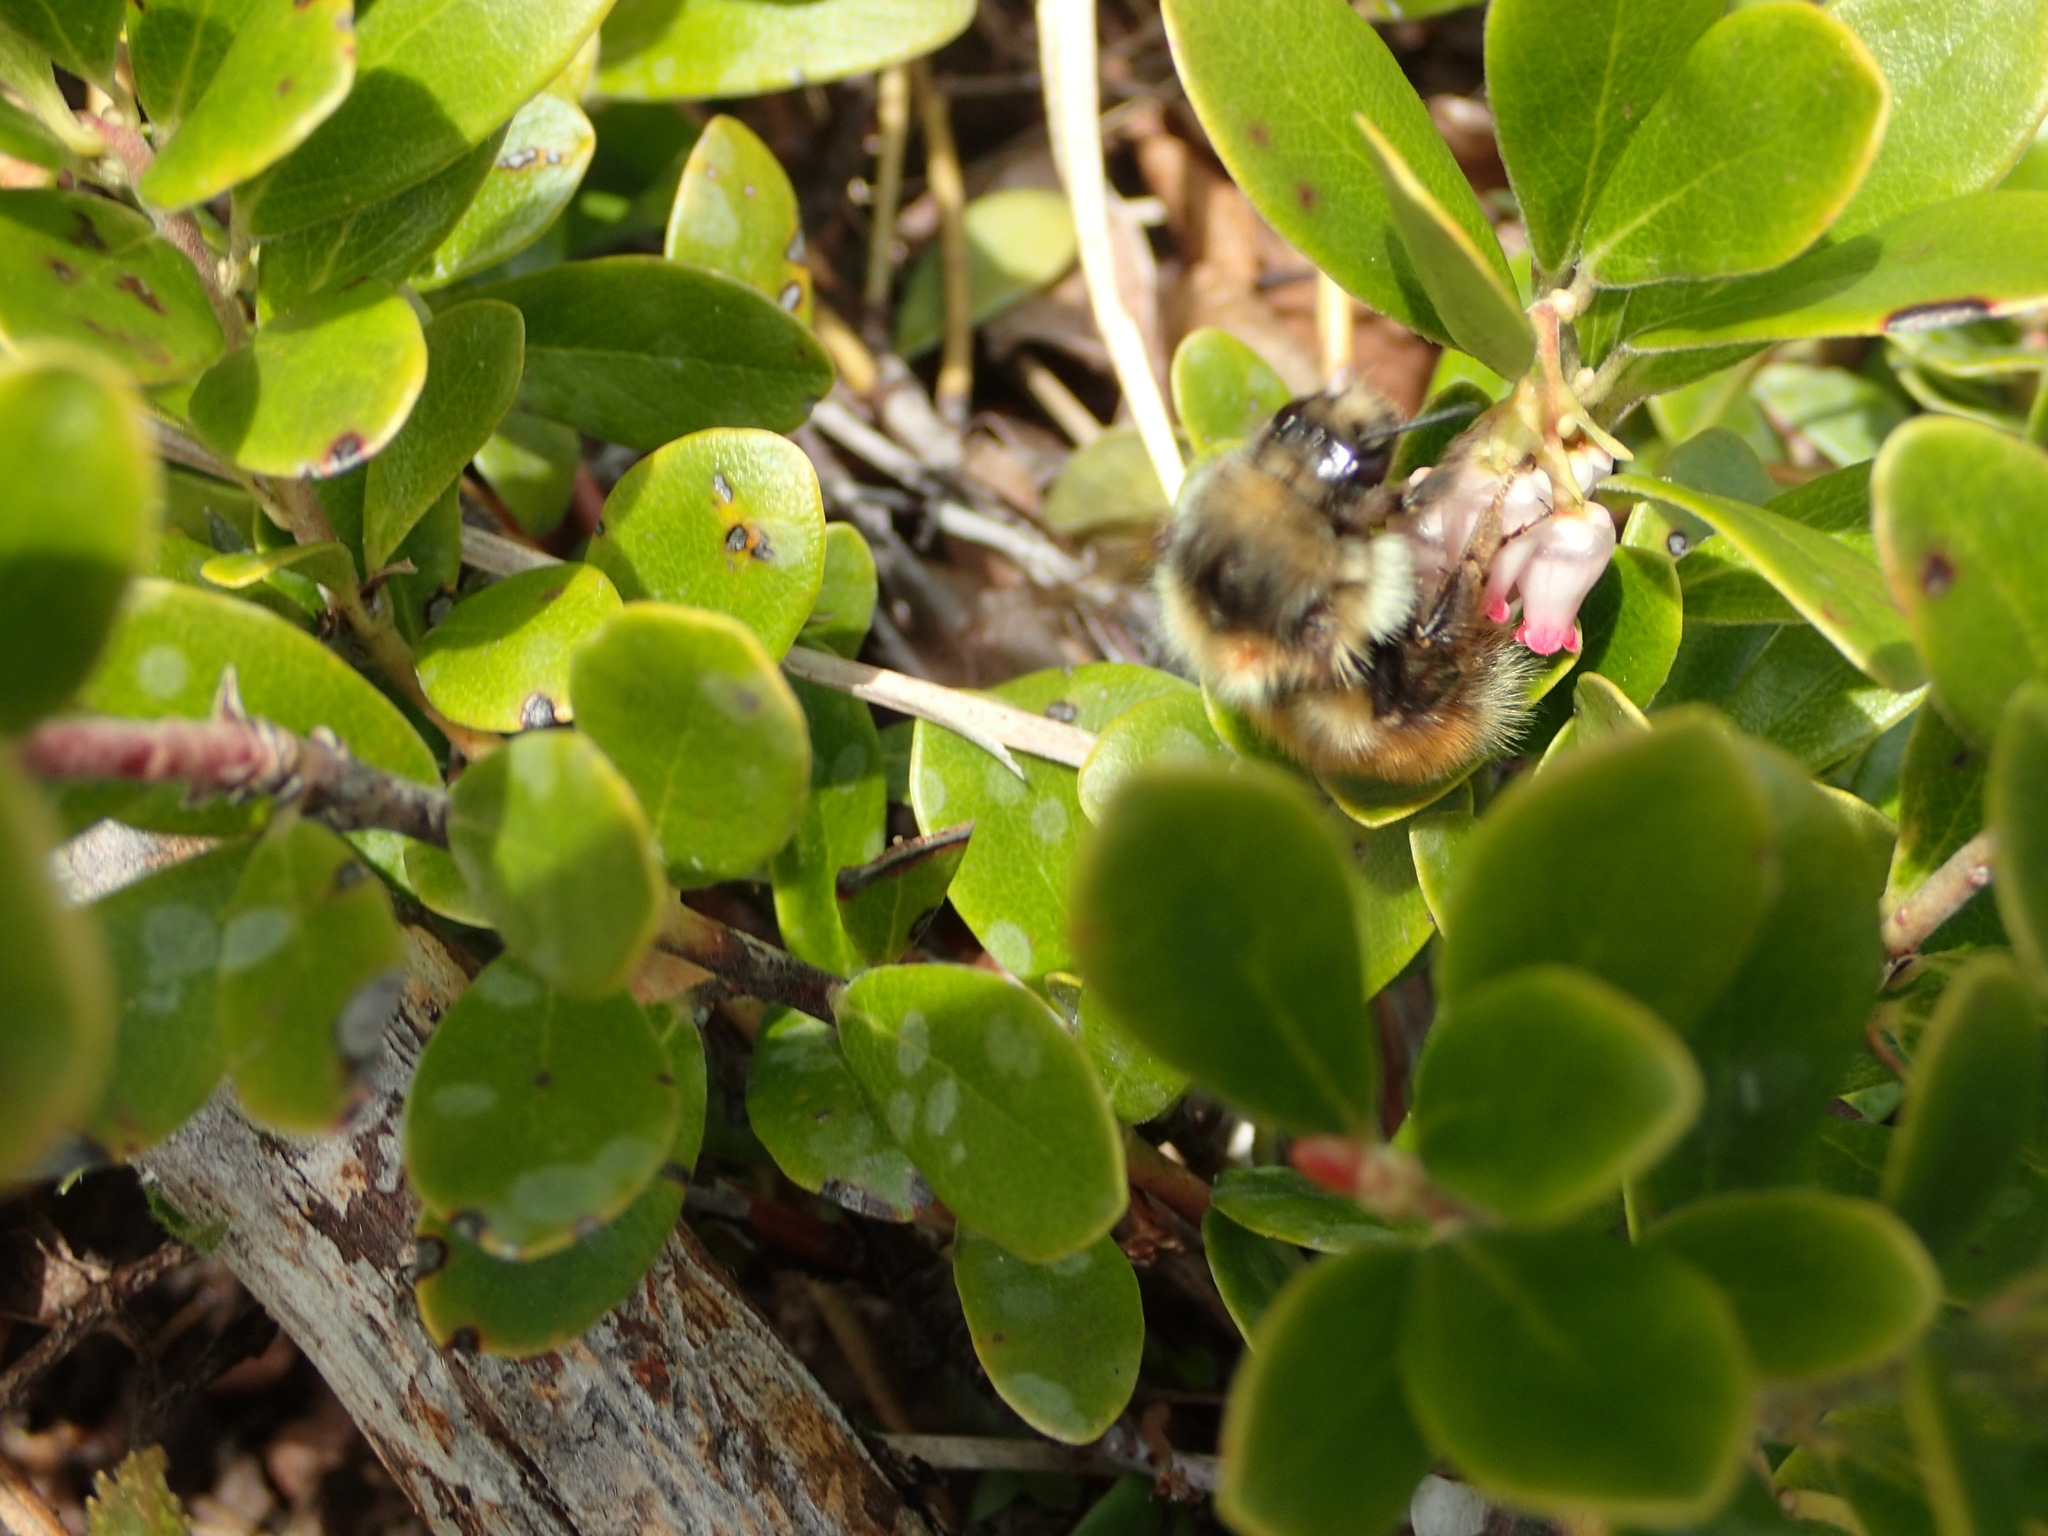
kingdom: Animalia
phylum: Arthropoda
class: Insecta
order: Hymenoptera
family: Apidae
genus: Bombus
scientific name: Bombus melanopygus
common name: Black tail bumble bee
